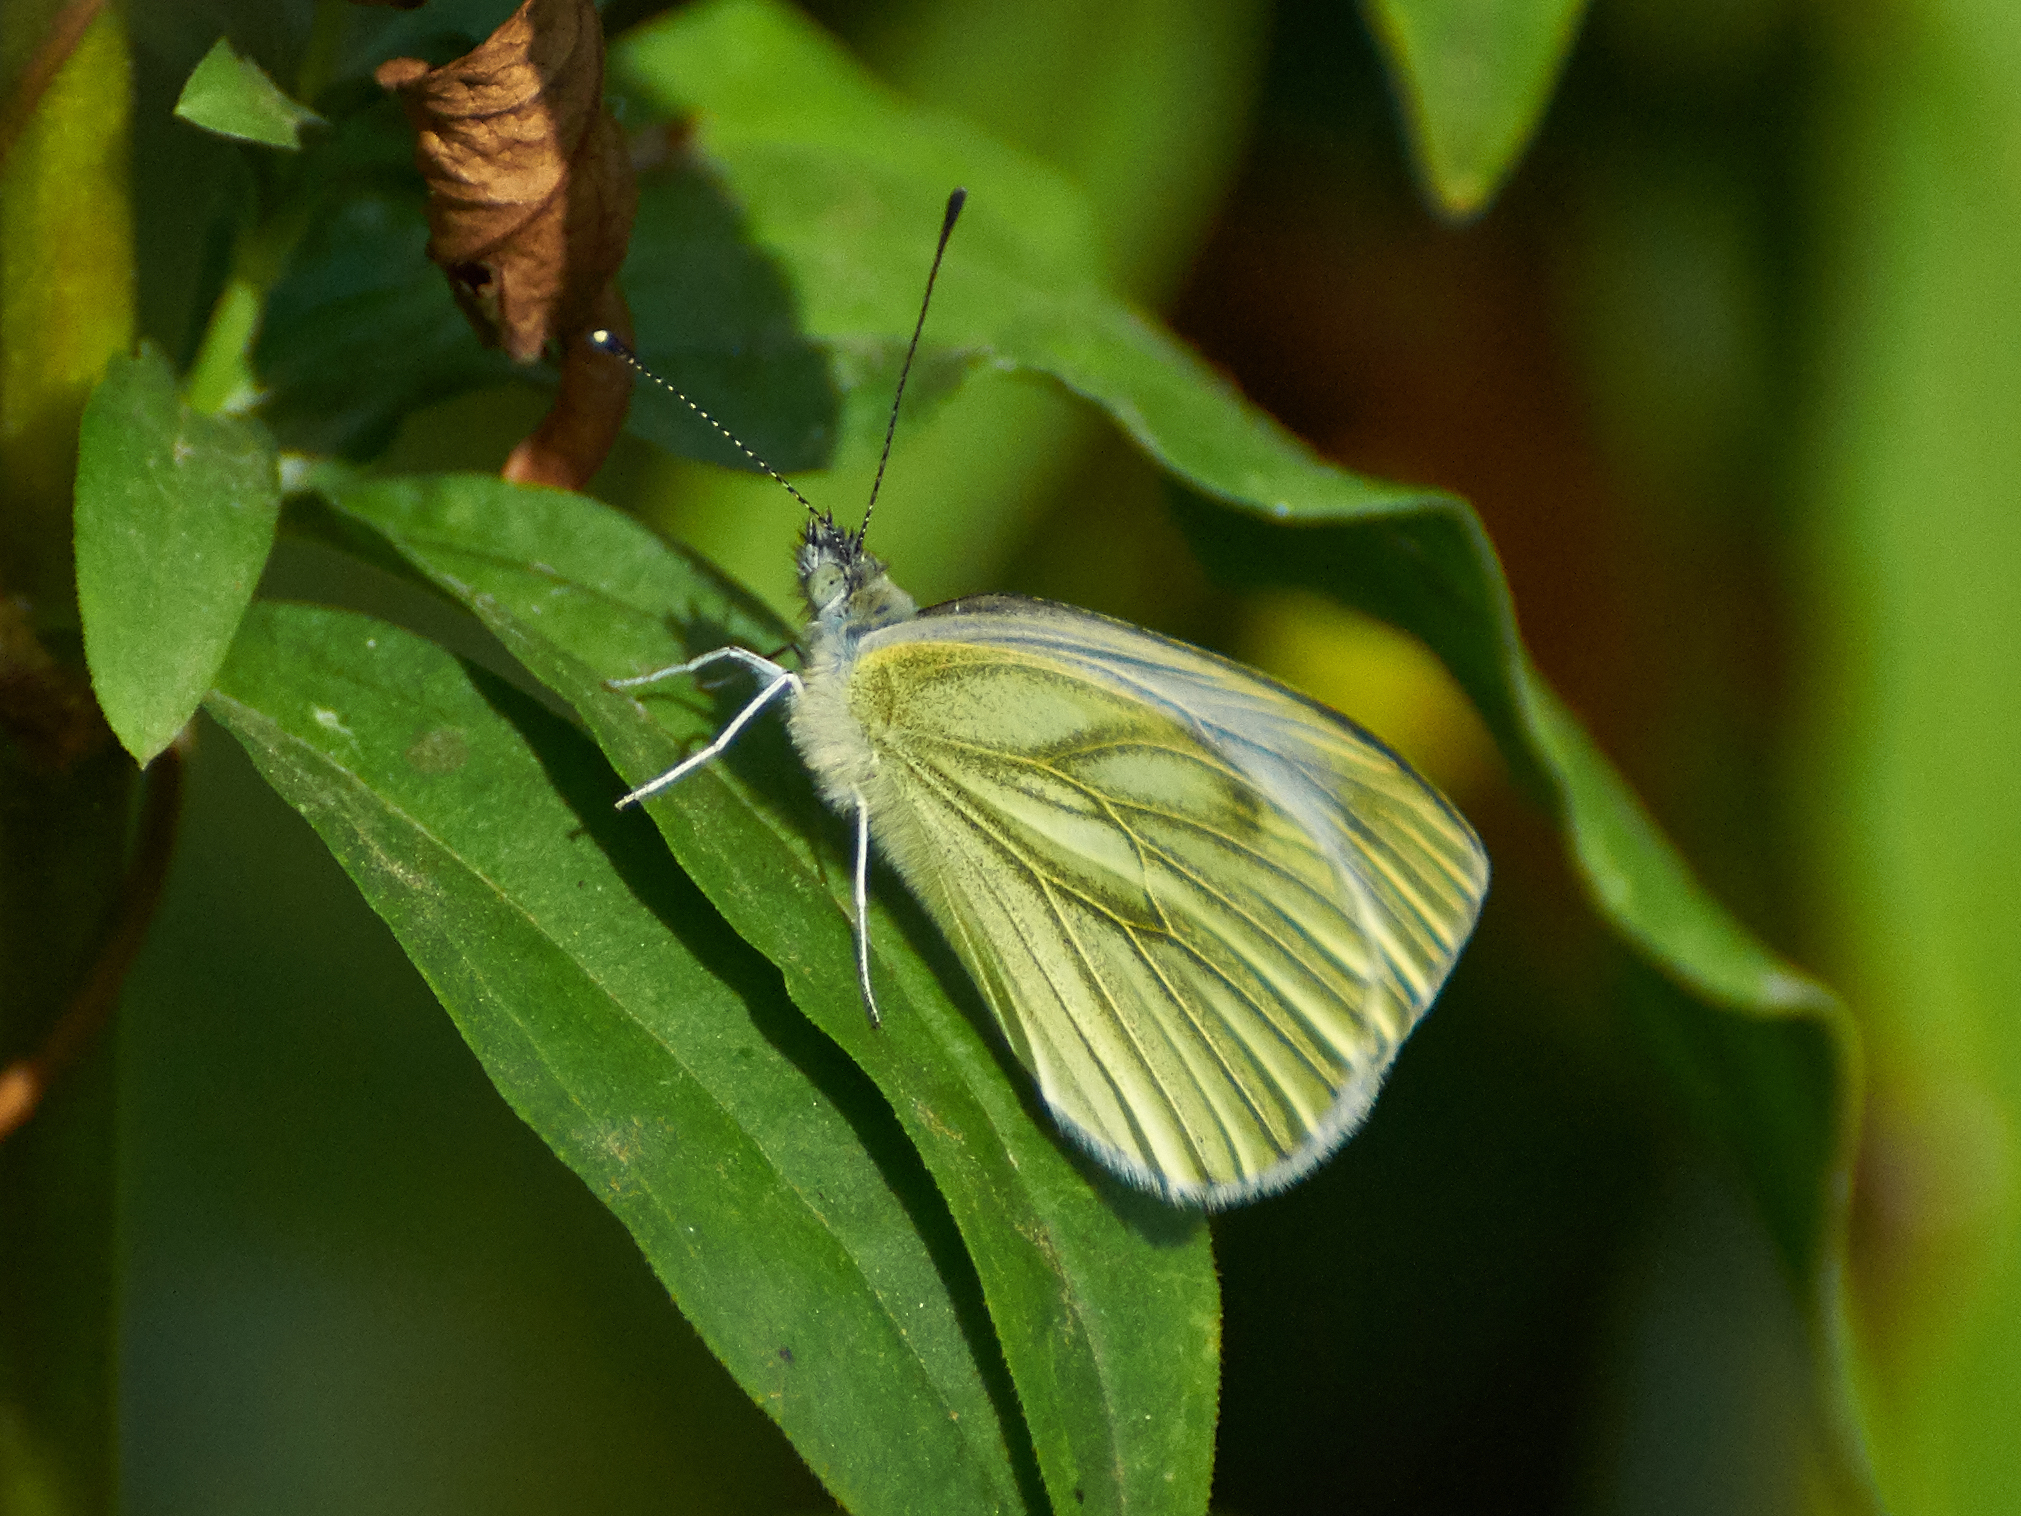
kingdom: Animalia
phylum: Arthropoda
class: Insecta
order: Lepidoptera
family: Pieridae
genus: Pieris
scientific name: Pieris napi
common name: Green-veined white
